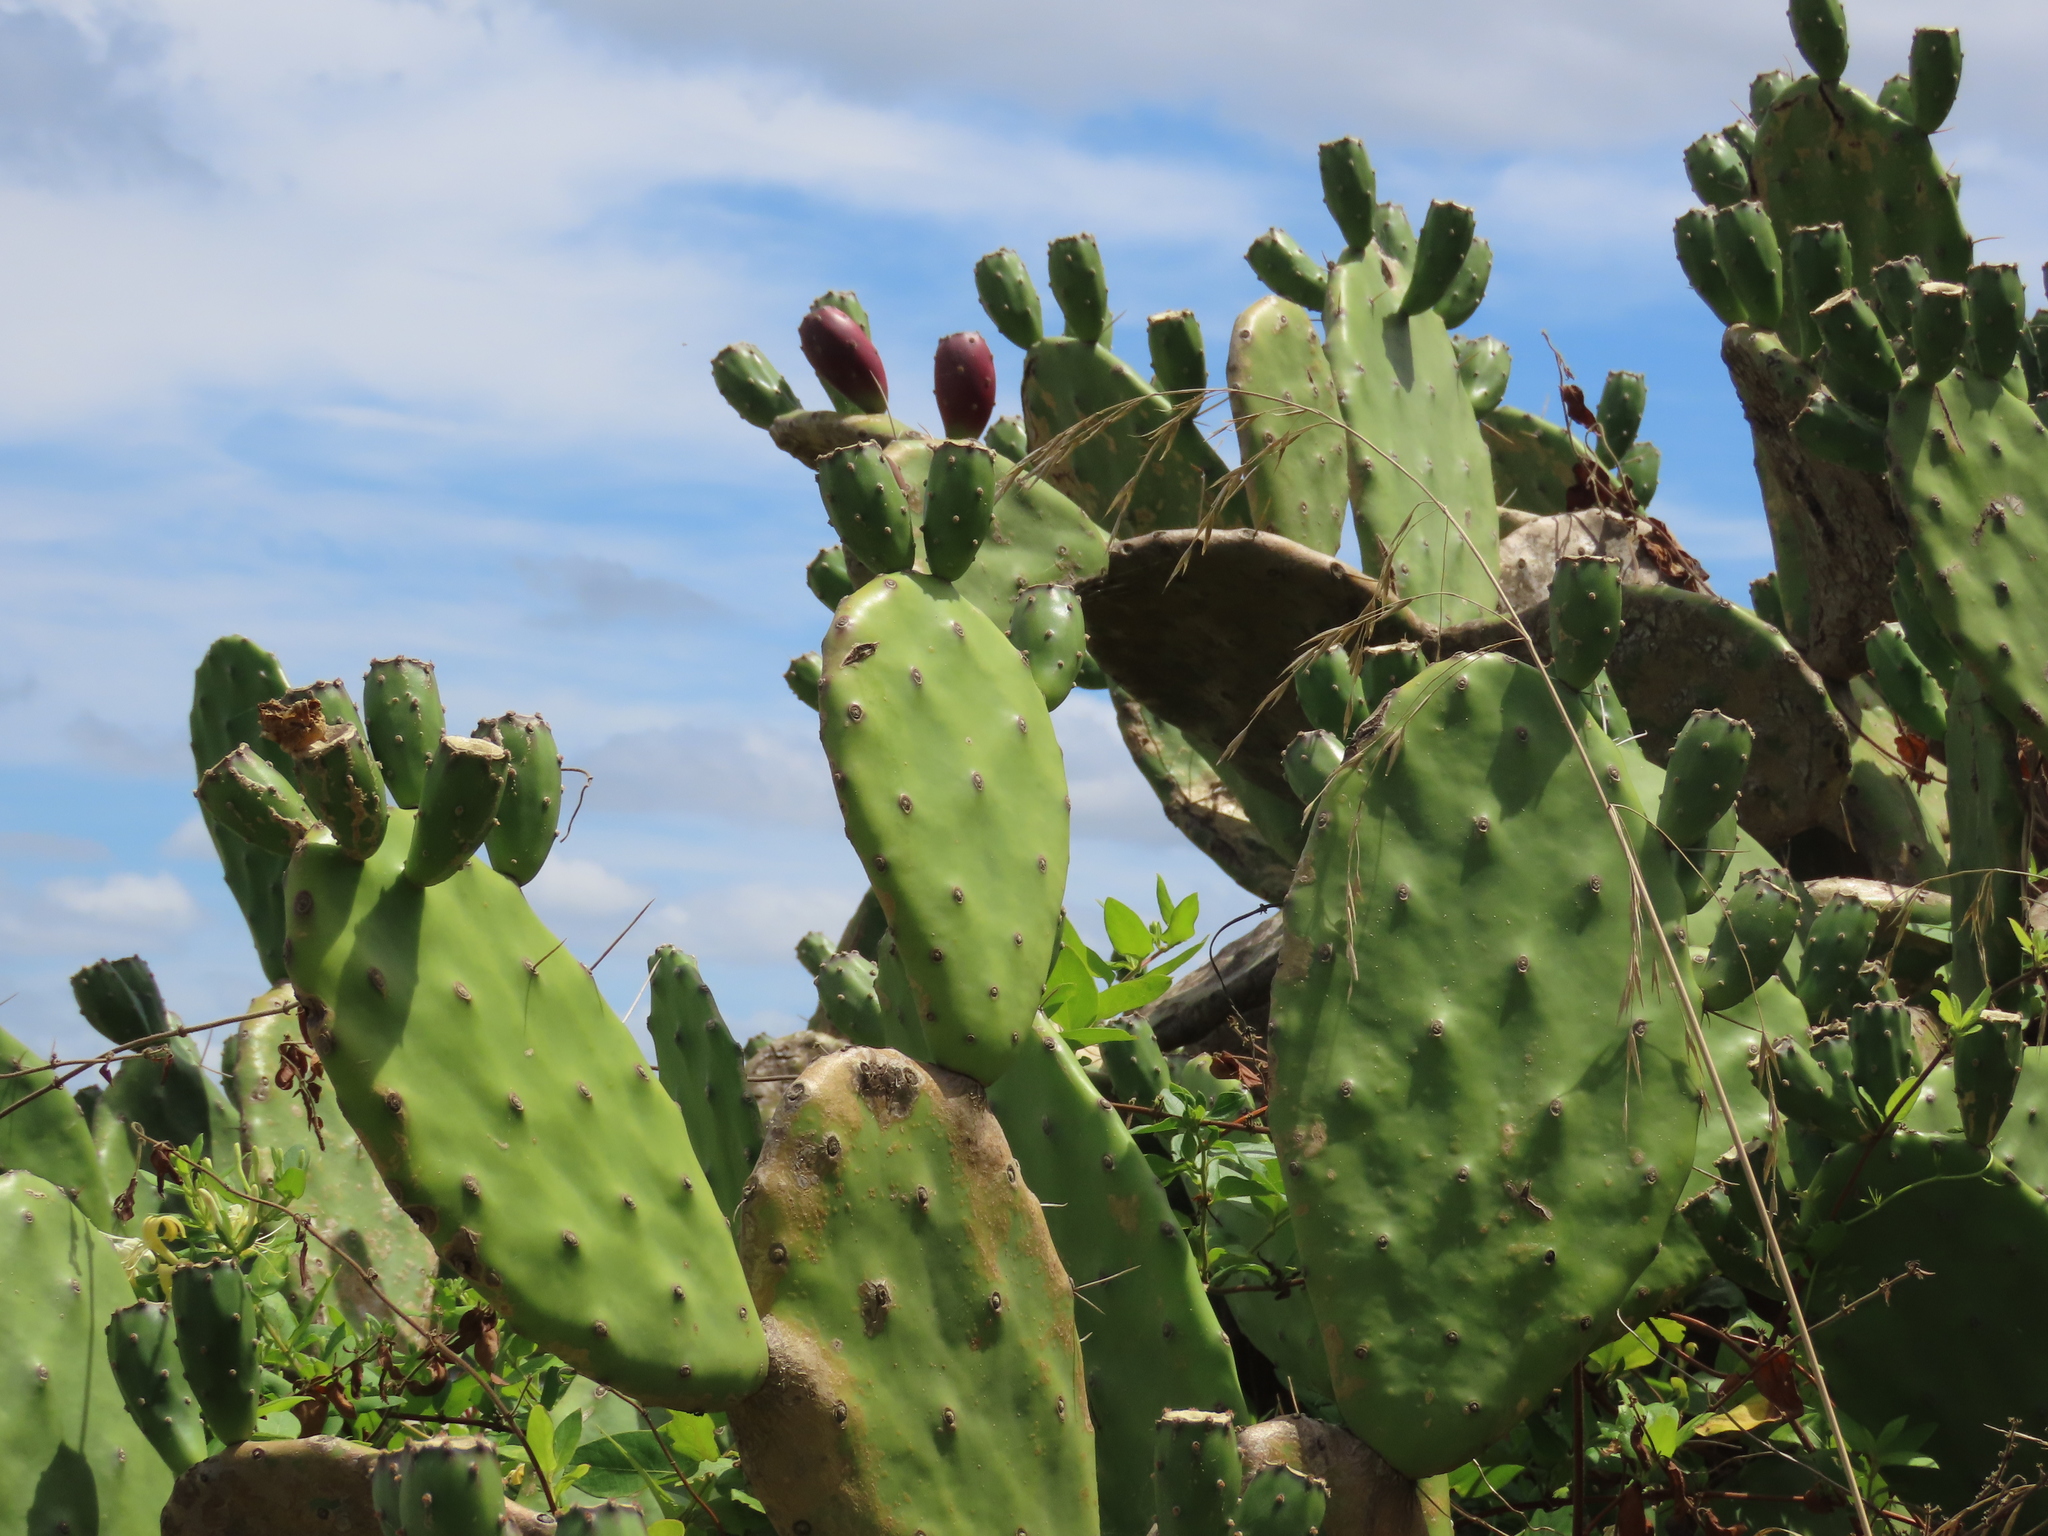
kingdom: Plantae
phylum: Tracheophyta
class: Magnoliopsida
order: Caryophyllales
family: Cactaceae
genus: Opuntia
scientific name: Opuntia elata
